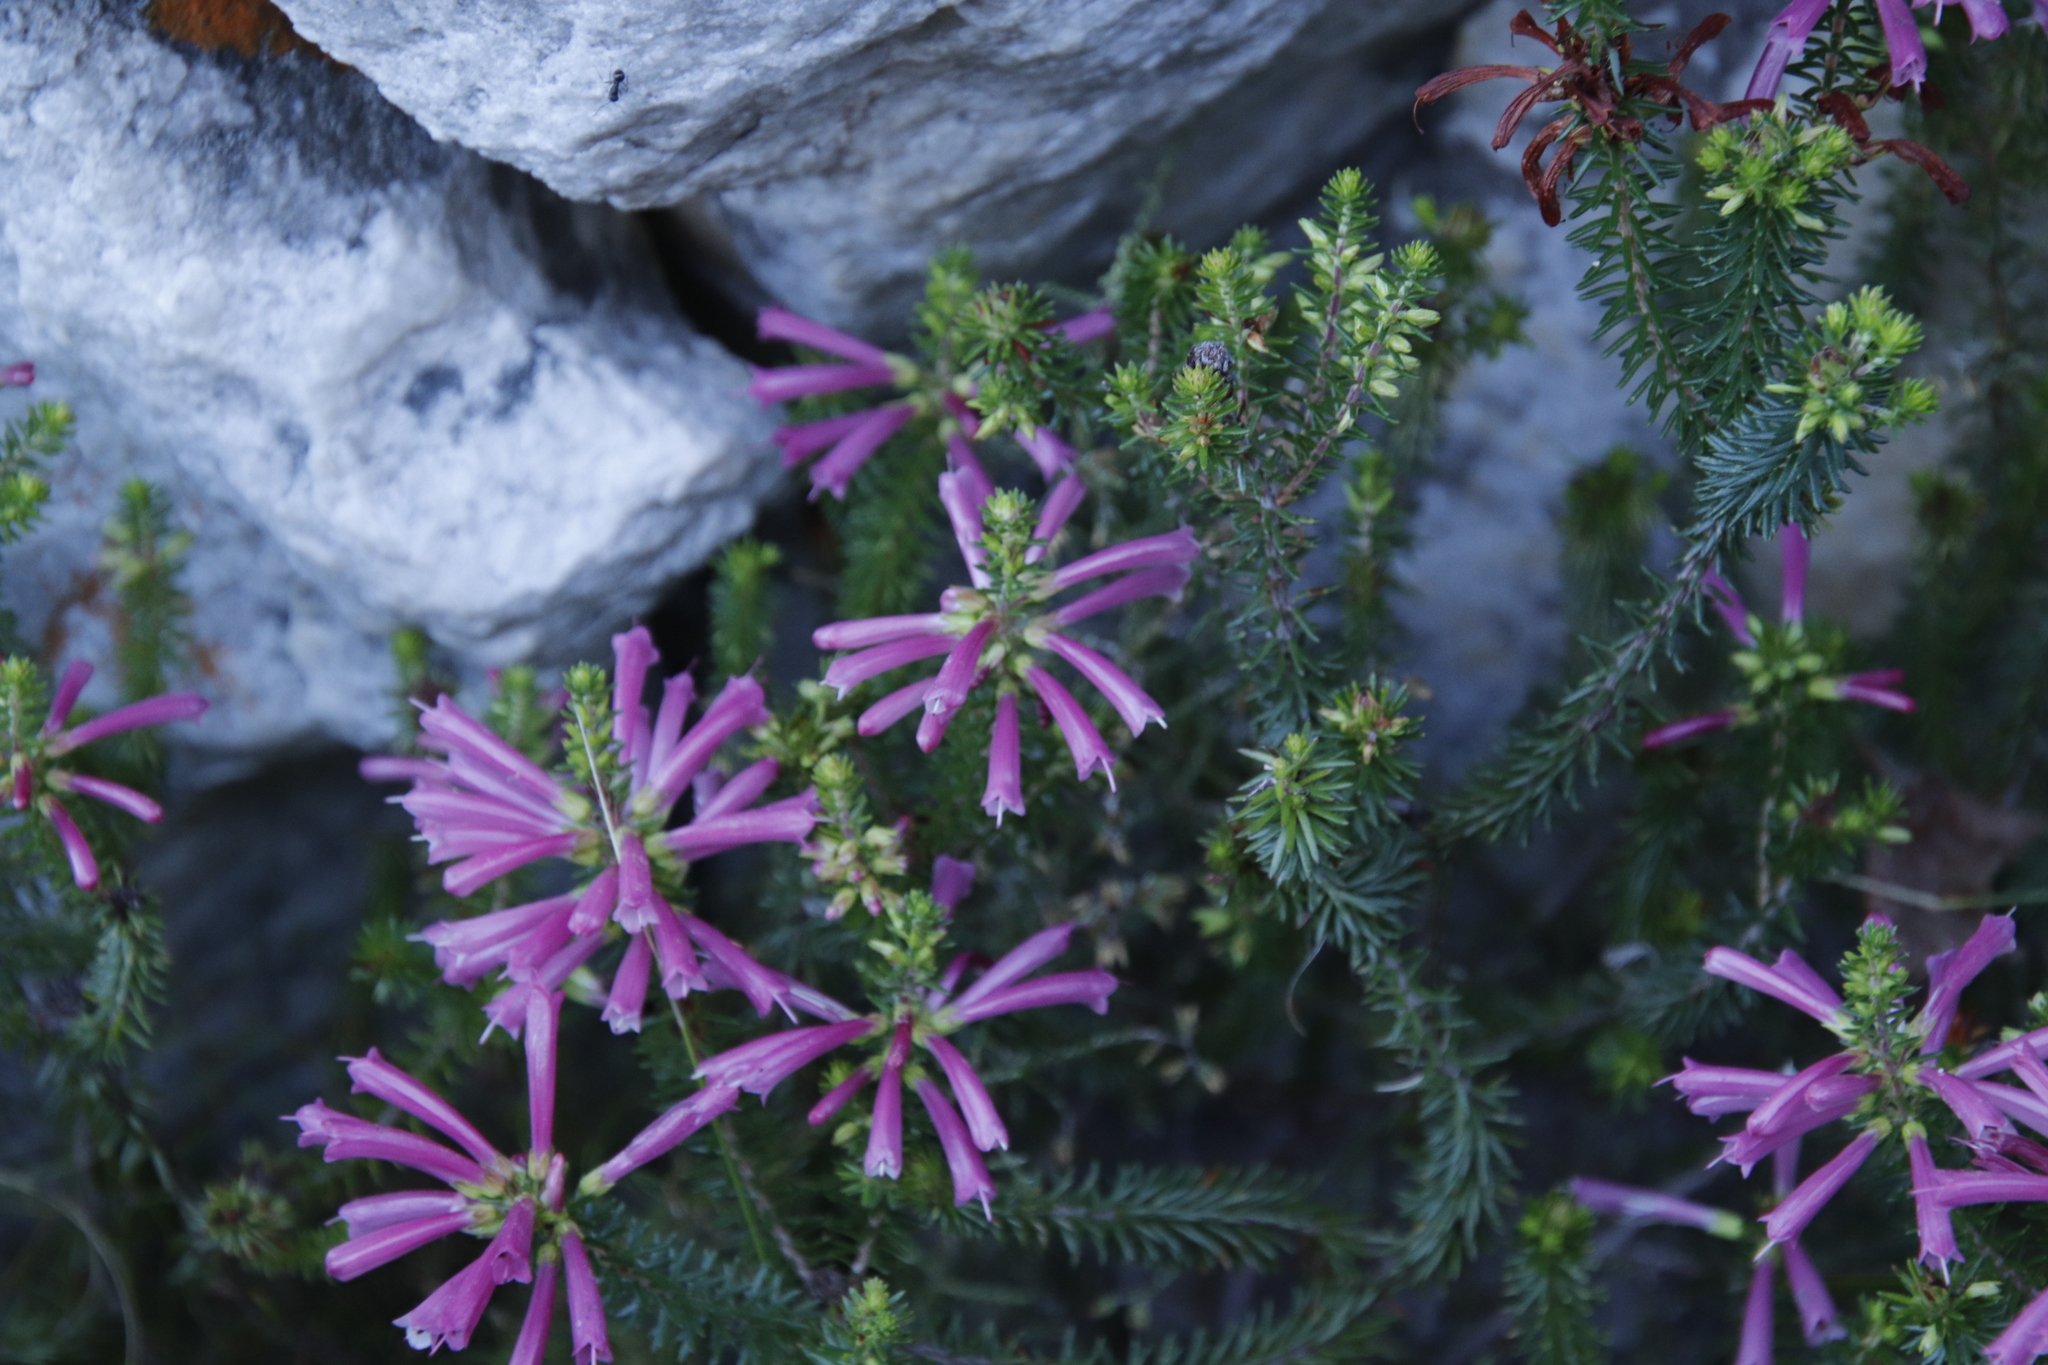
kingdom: Plantae
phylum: Tracheophyta
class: Magnoliopsida
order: Ericales
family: Ericaceae
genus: Erica
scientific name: Erica abietina
